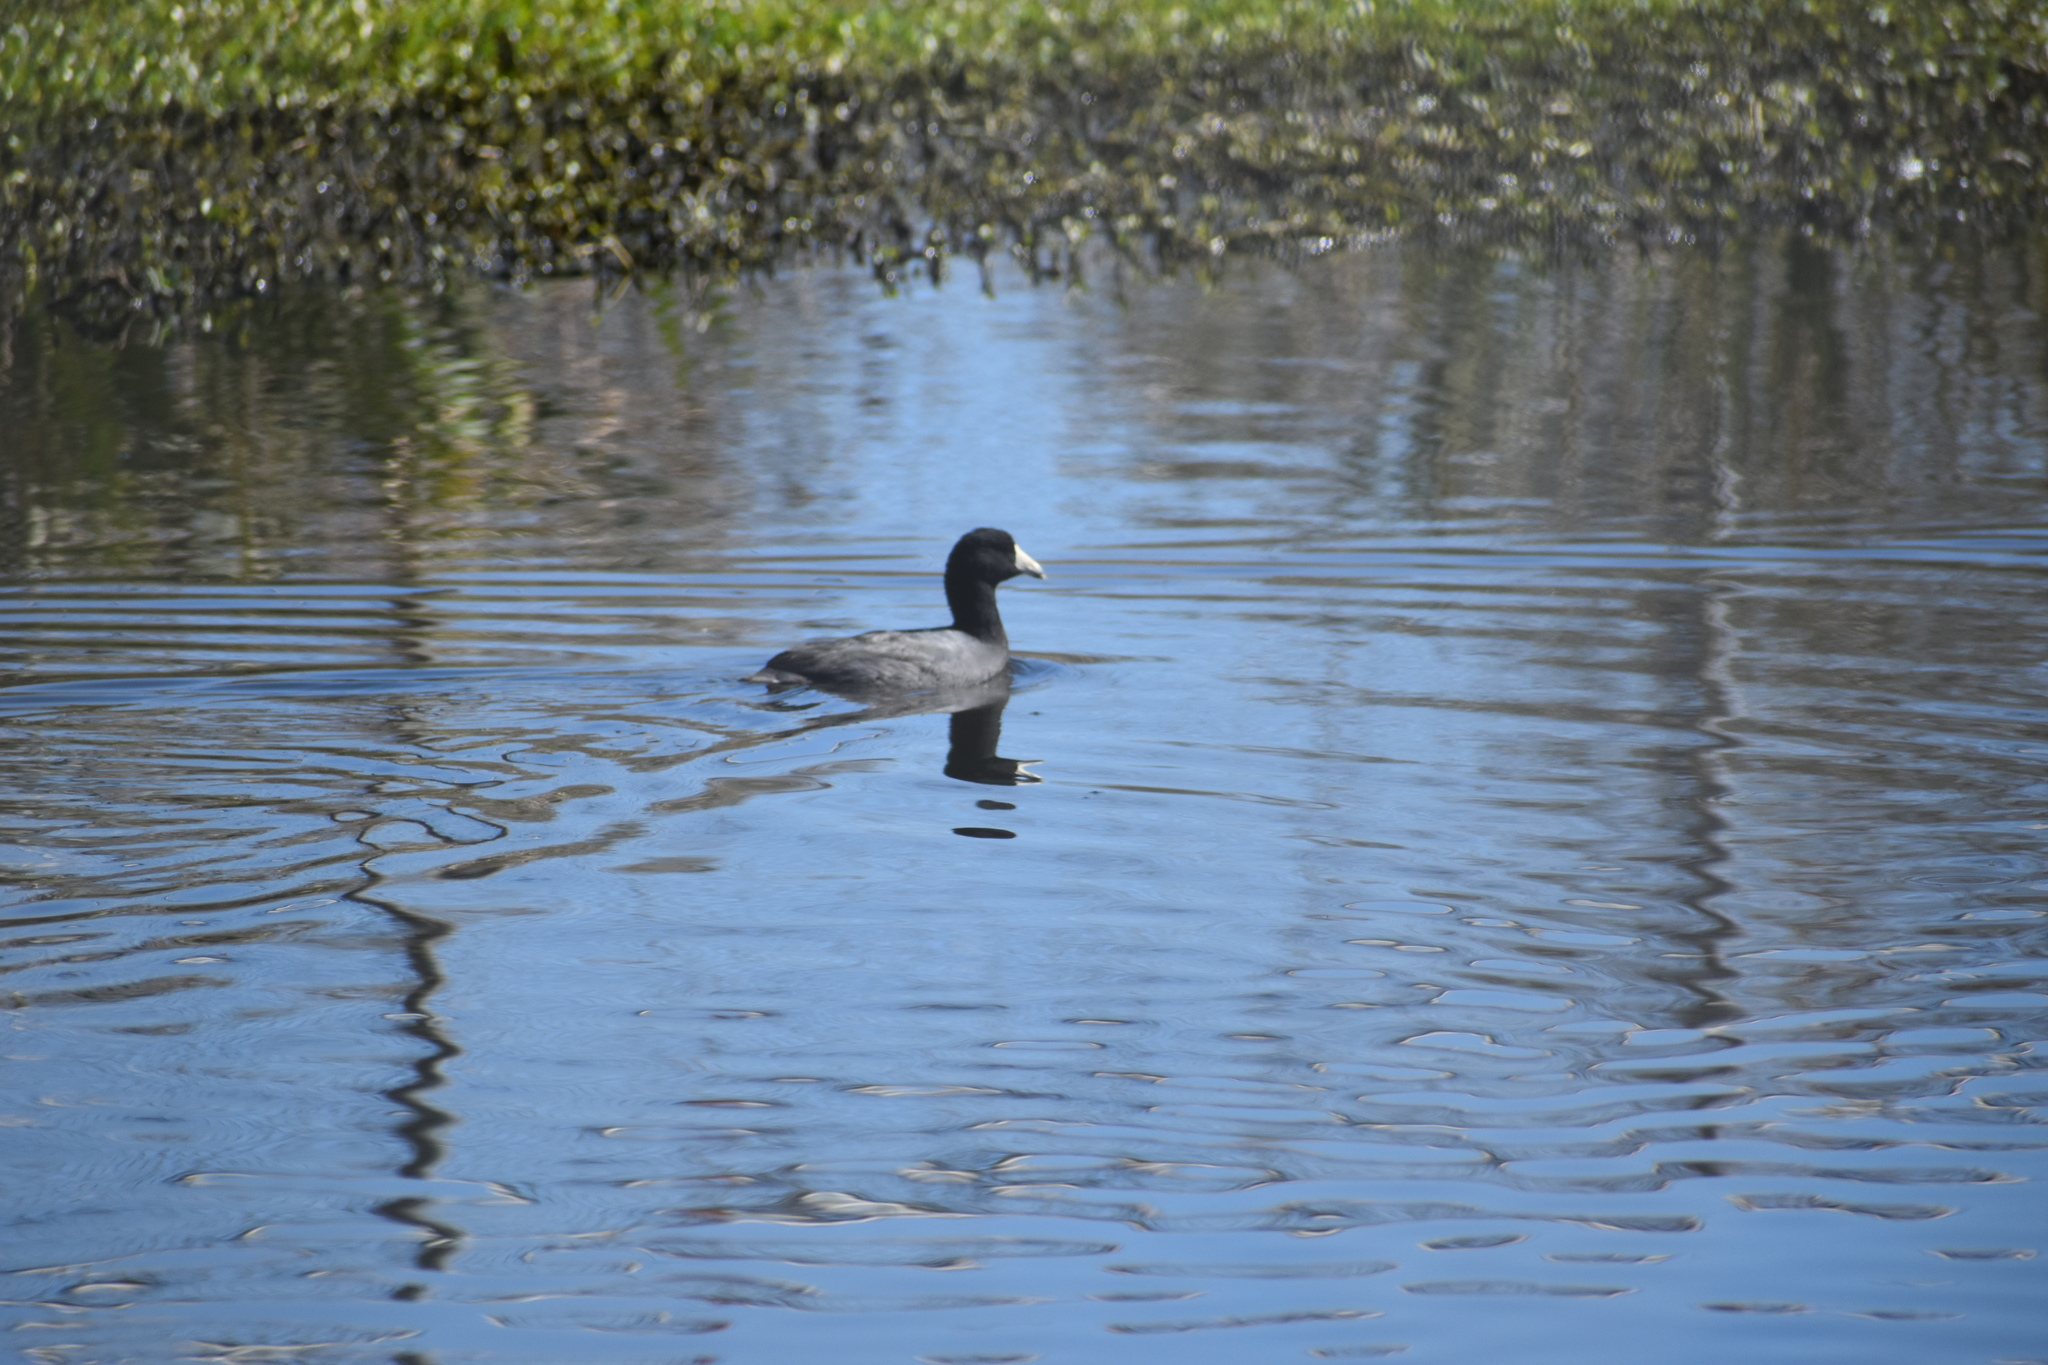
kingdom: Animalia
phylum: Chordata
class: Aves
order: Gruiformes
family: Rallidae
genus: Fulica
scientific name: Fulica americana
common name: American coot
